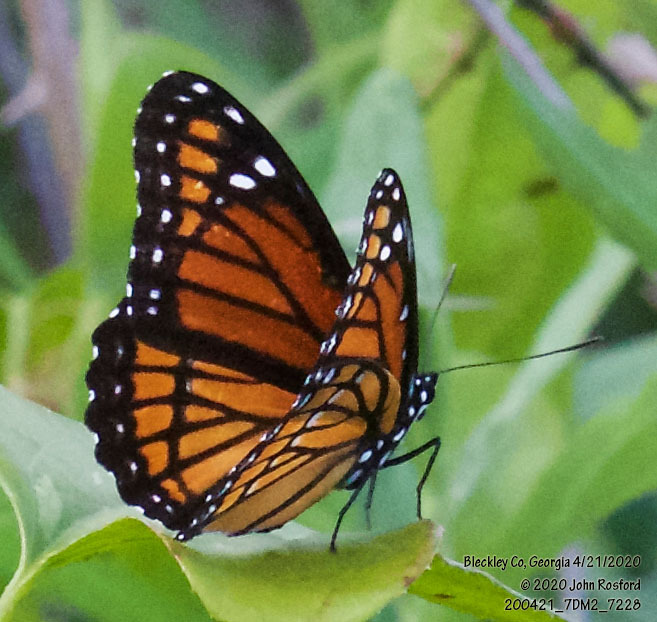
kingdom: Animalia
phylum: Arthropoda
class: Insecta
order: Lepidoptera
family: Nymphalidae
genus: Limenitis
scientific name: Limenitis archippus
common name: Viceroy
